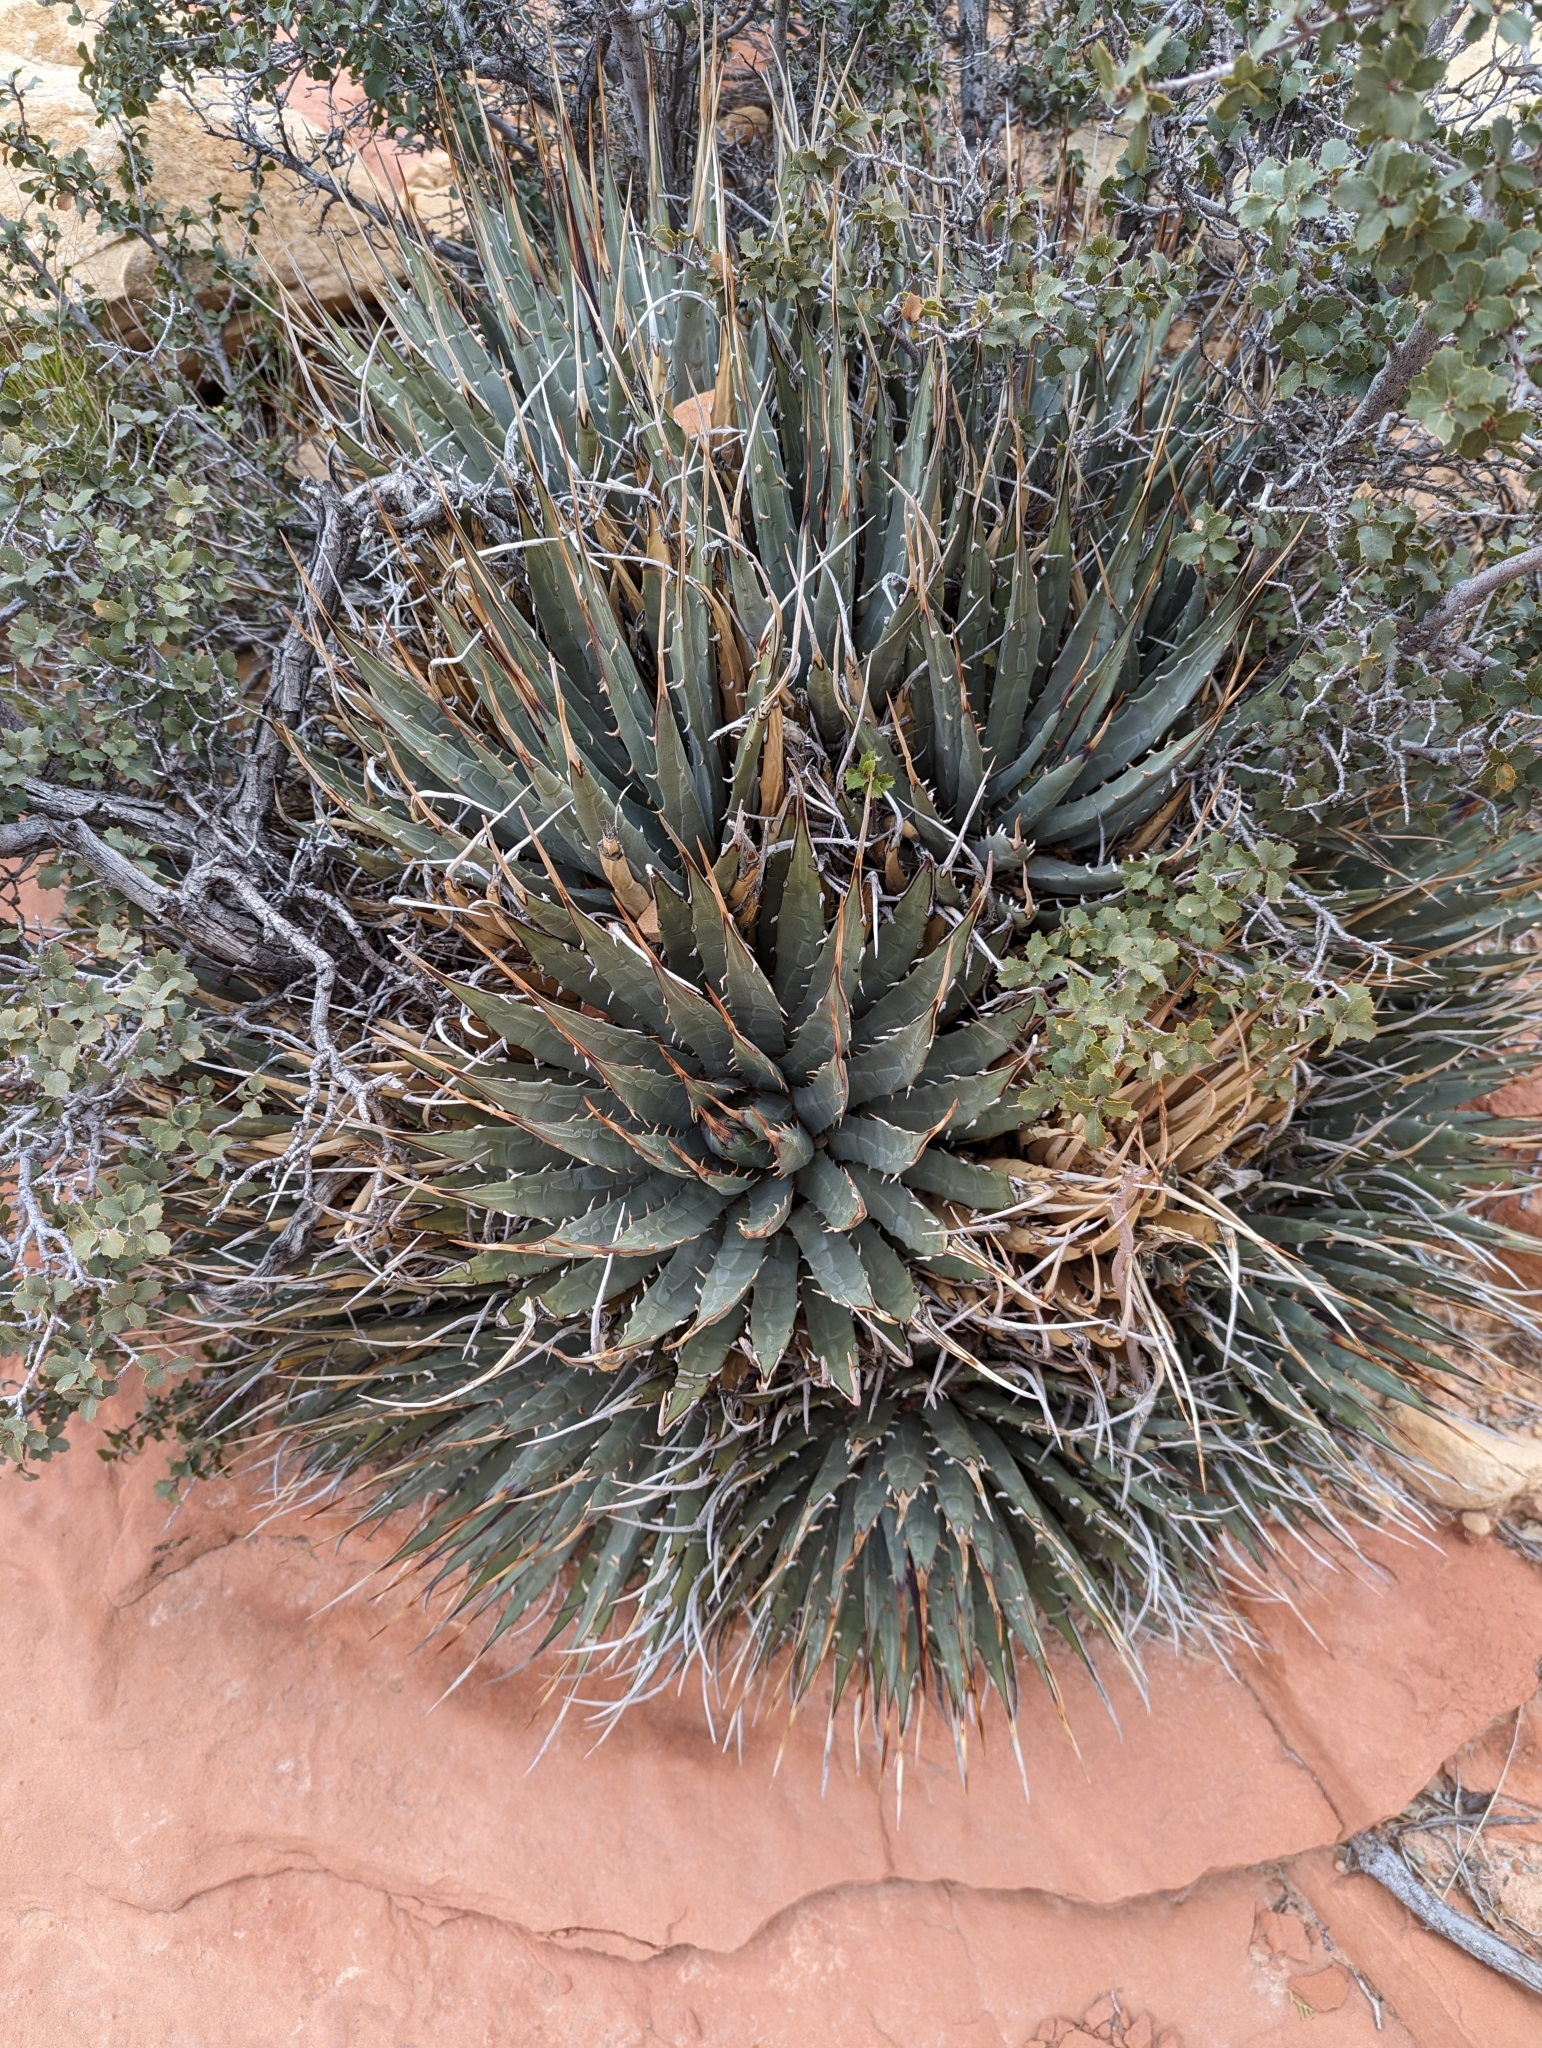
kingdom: Plantae
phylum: Tracheophyta
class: Liliopsida
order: Asparagales
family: Asparagaceae
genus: Agave
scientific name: Agave utahensis
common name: Utah agave
